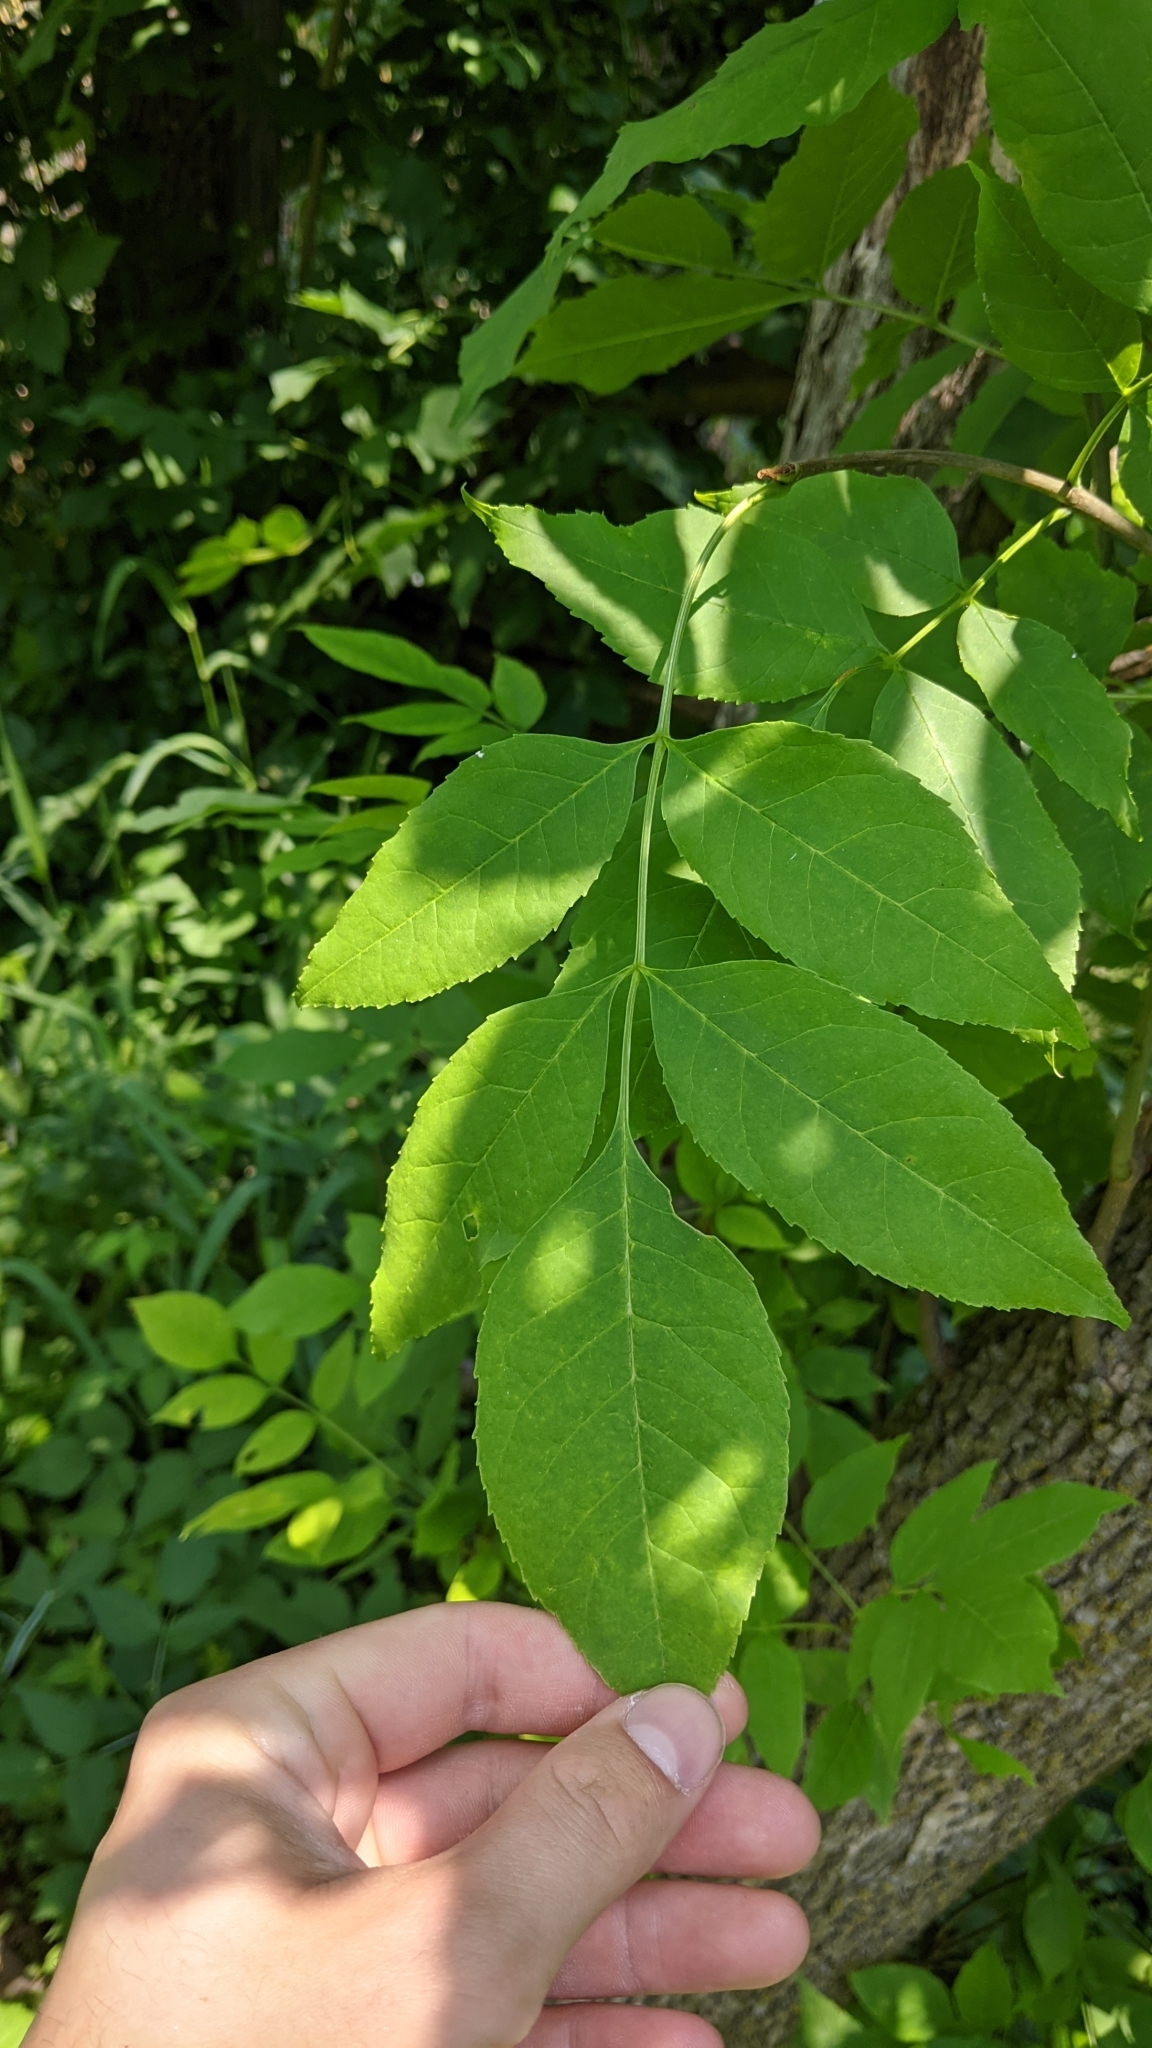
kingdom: Plantae
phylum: Tracheophyta
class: Magnoliopsida
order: Lamiales
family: Oleaceae
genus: Fraxinus
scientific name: Fraxinus pennsylvanica
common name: Green ash
